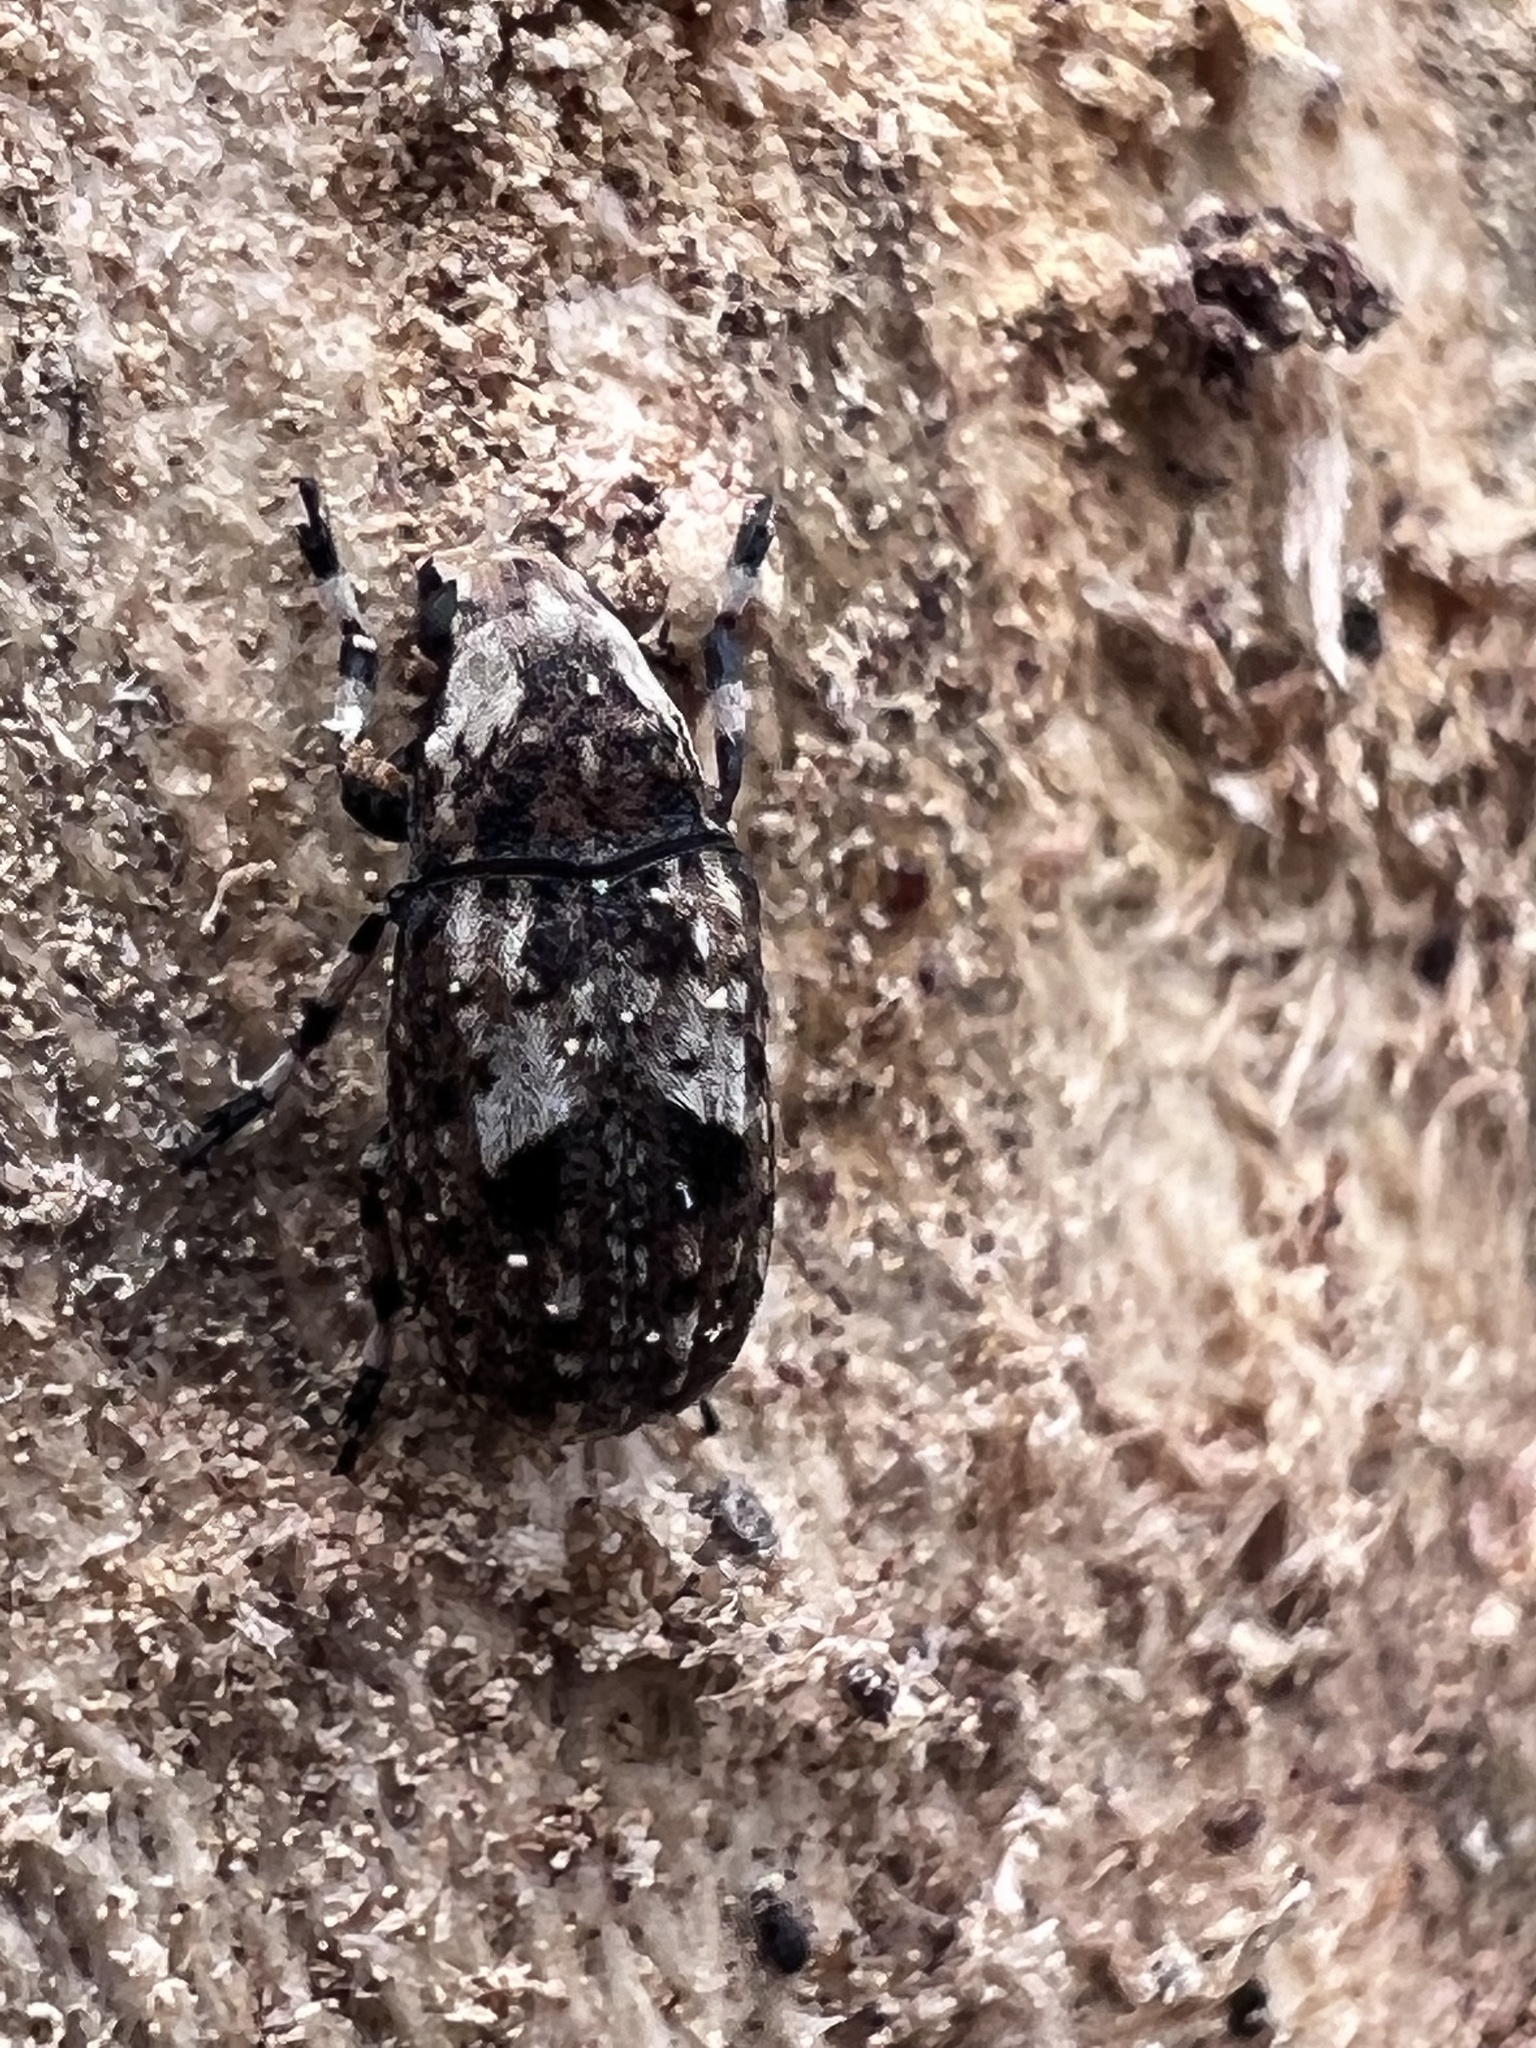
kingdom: Animalia
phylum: Arthropoda
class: Insecta
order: Coleoptera
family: Anthribidae
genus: Euparius
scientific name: Euparius marmoreus
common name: Marbled fungus weevil
